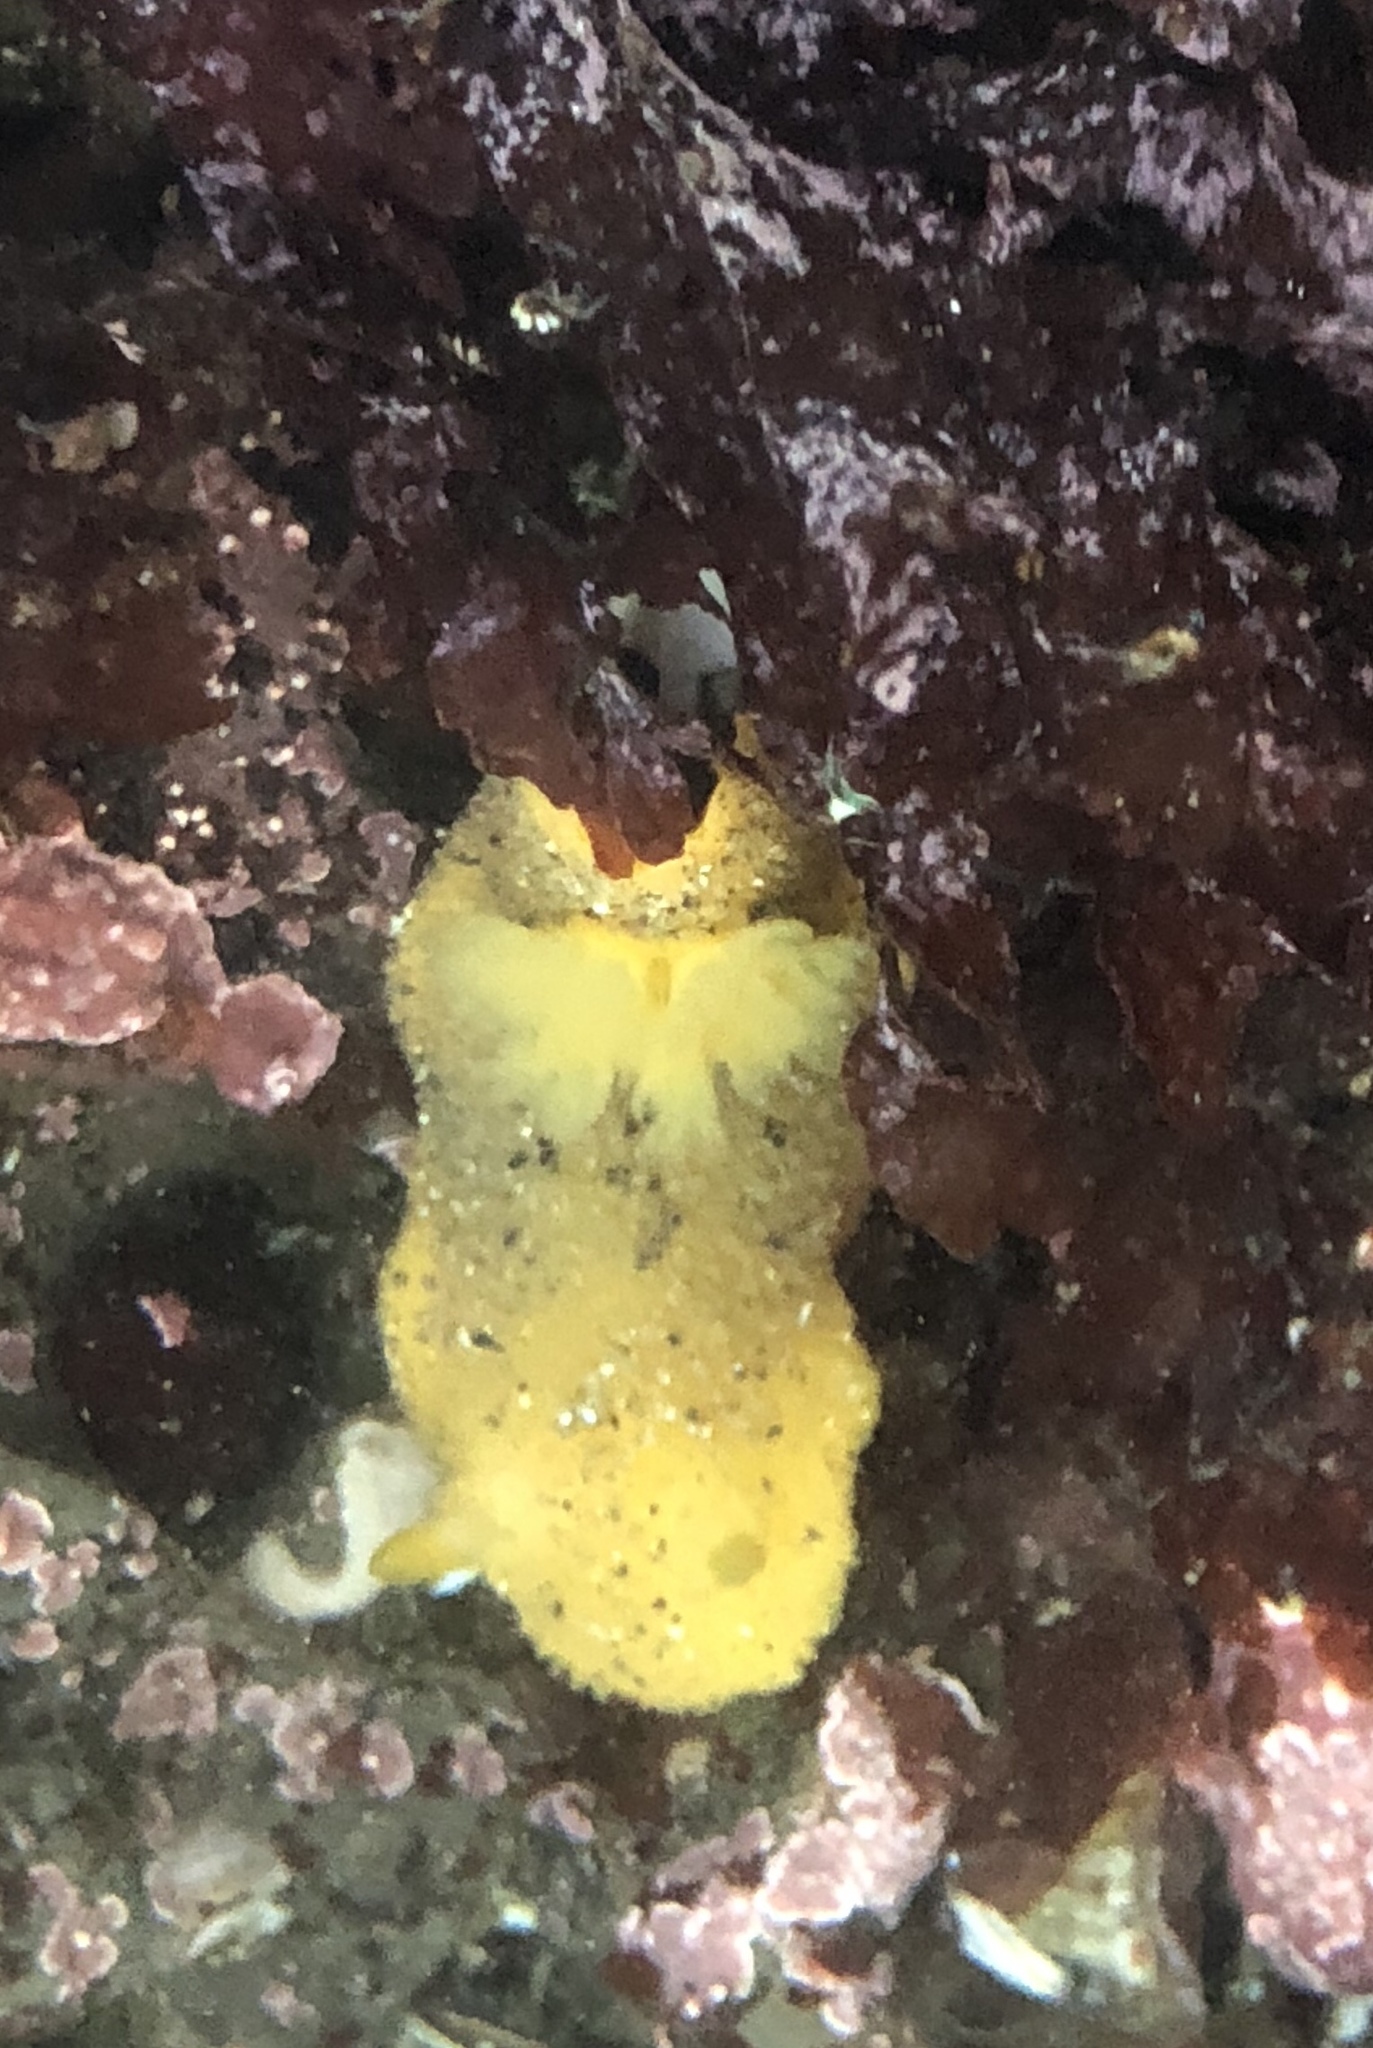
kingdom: Animalia
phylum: Mollusca
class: Gastropoda
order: Nudibranchia
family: Dorididae
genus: Doris
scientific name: Doris montereyensis
